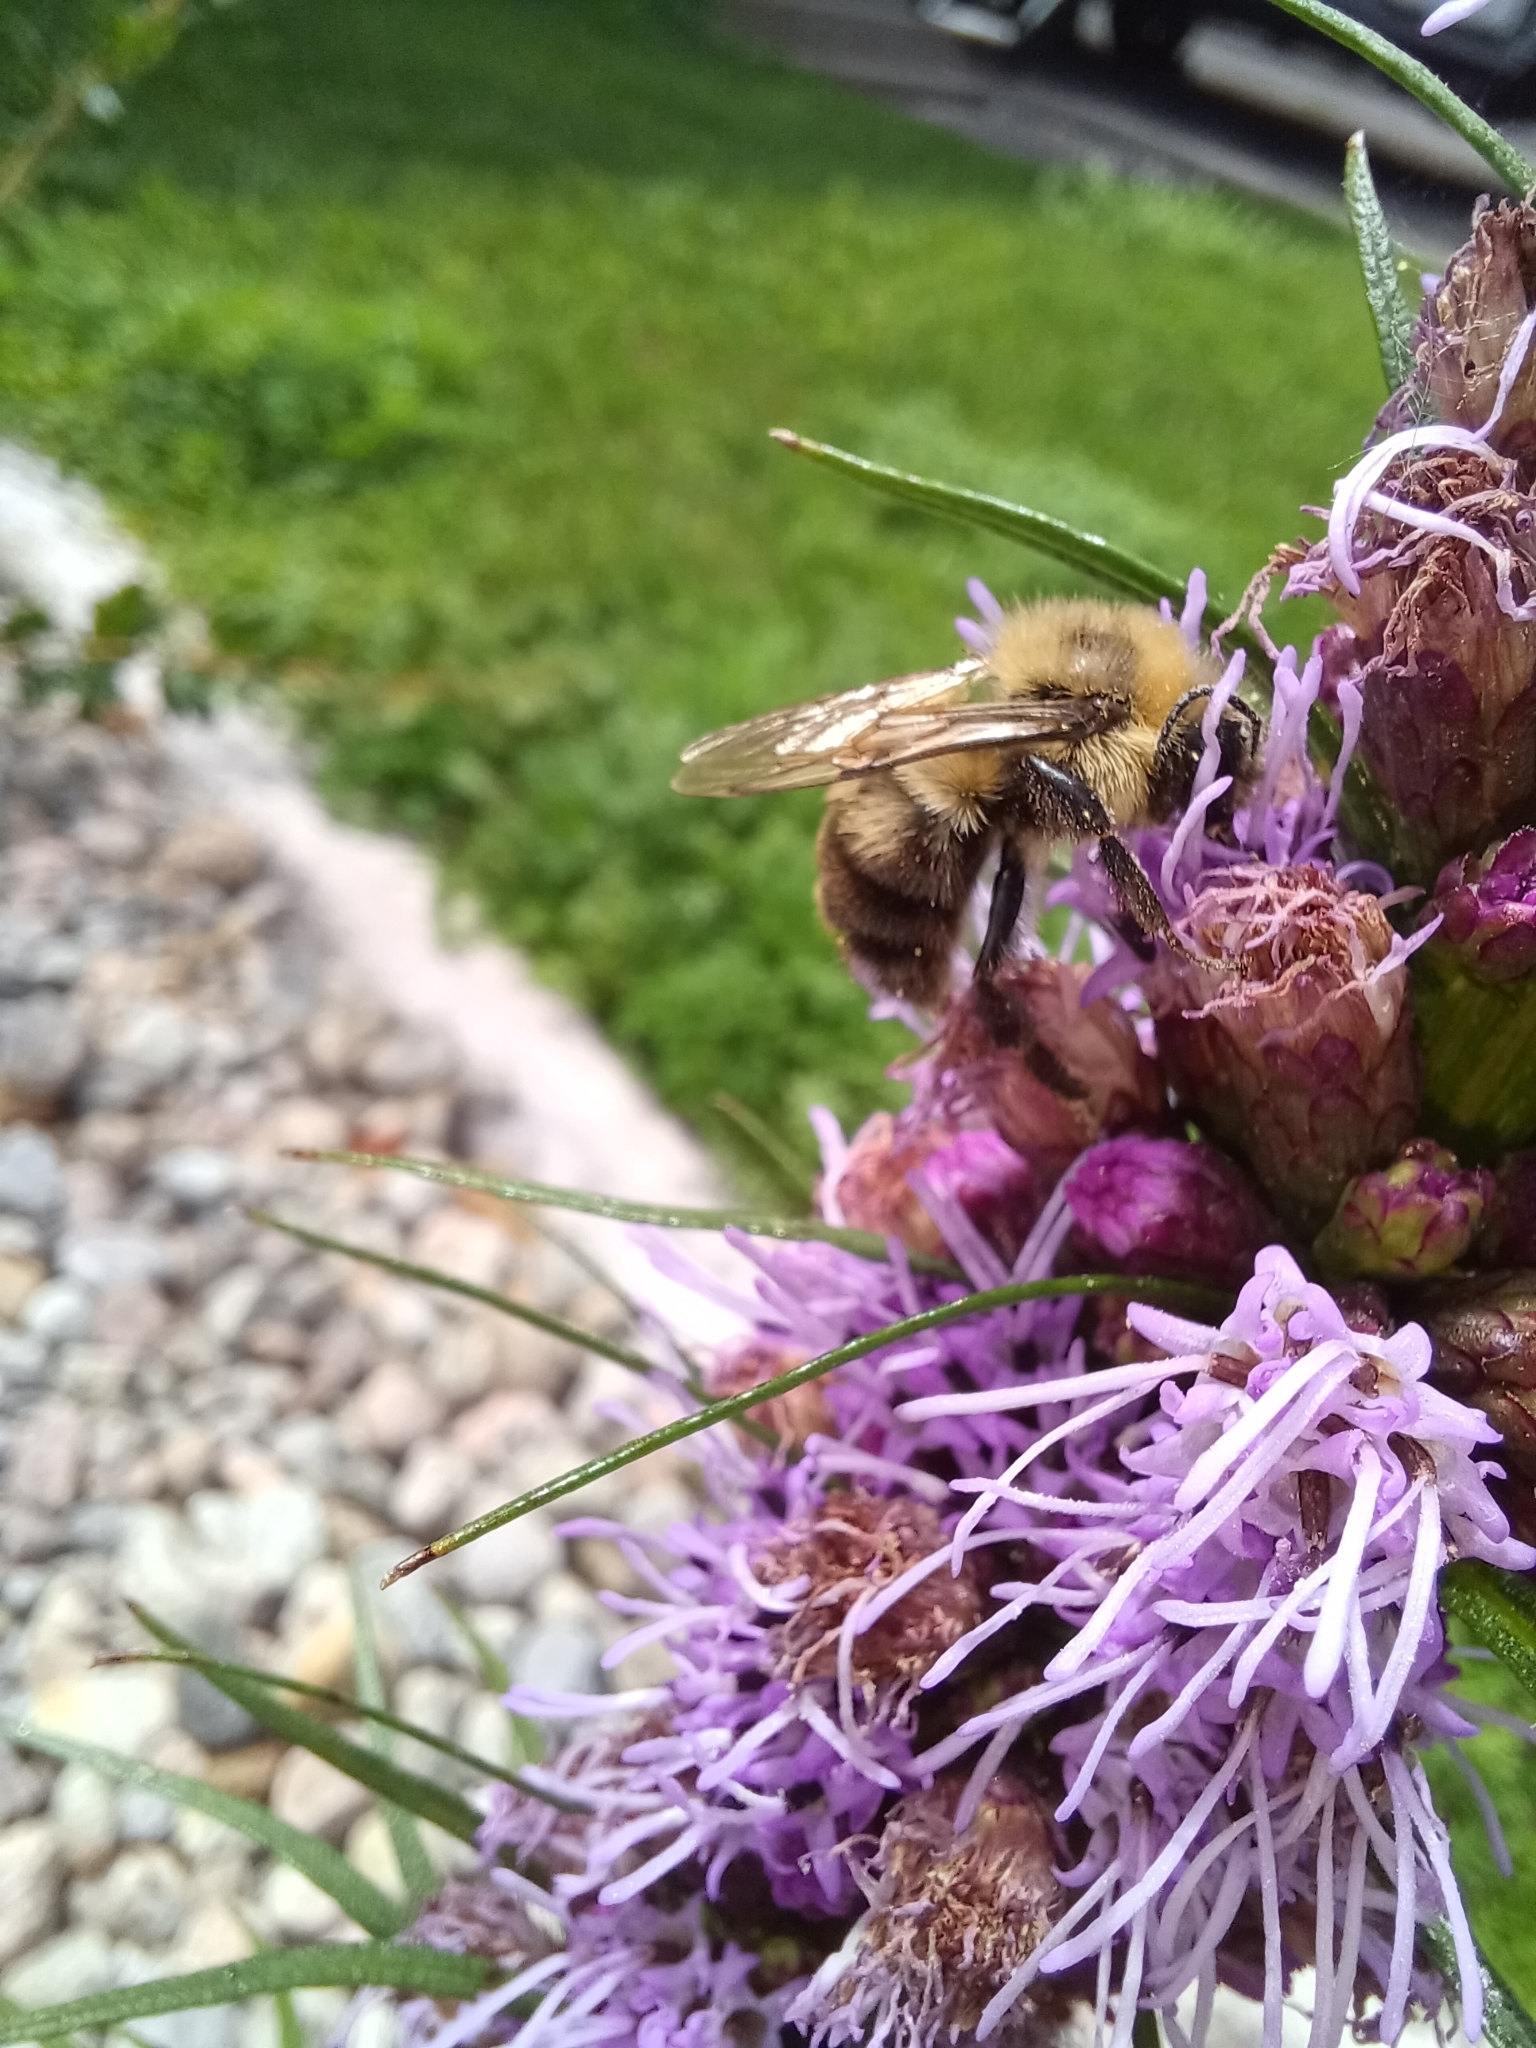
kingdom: Animalia
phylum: Arthropoda
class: Insecta
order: Hymenoptera
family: Apidae
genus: Bombus
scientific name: Bombus bimaculatus
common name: Two-spotted bumble bee
